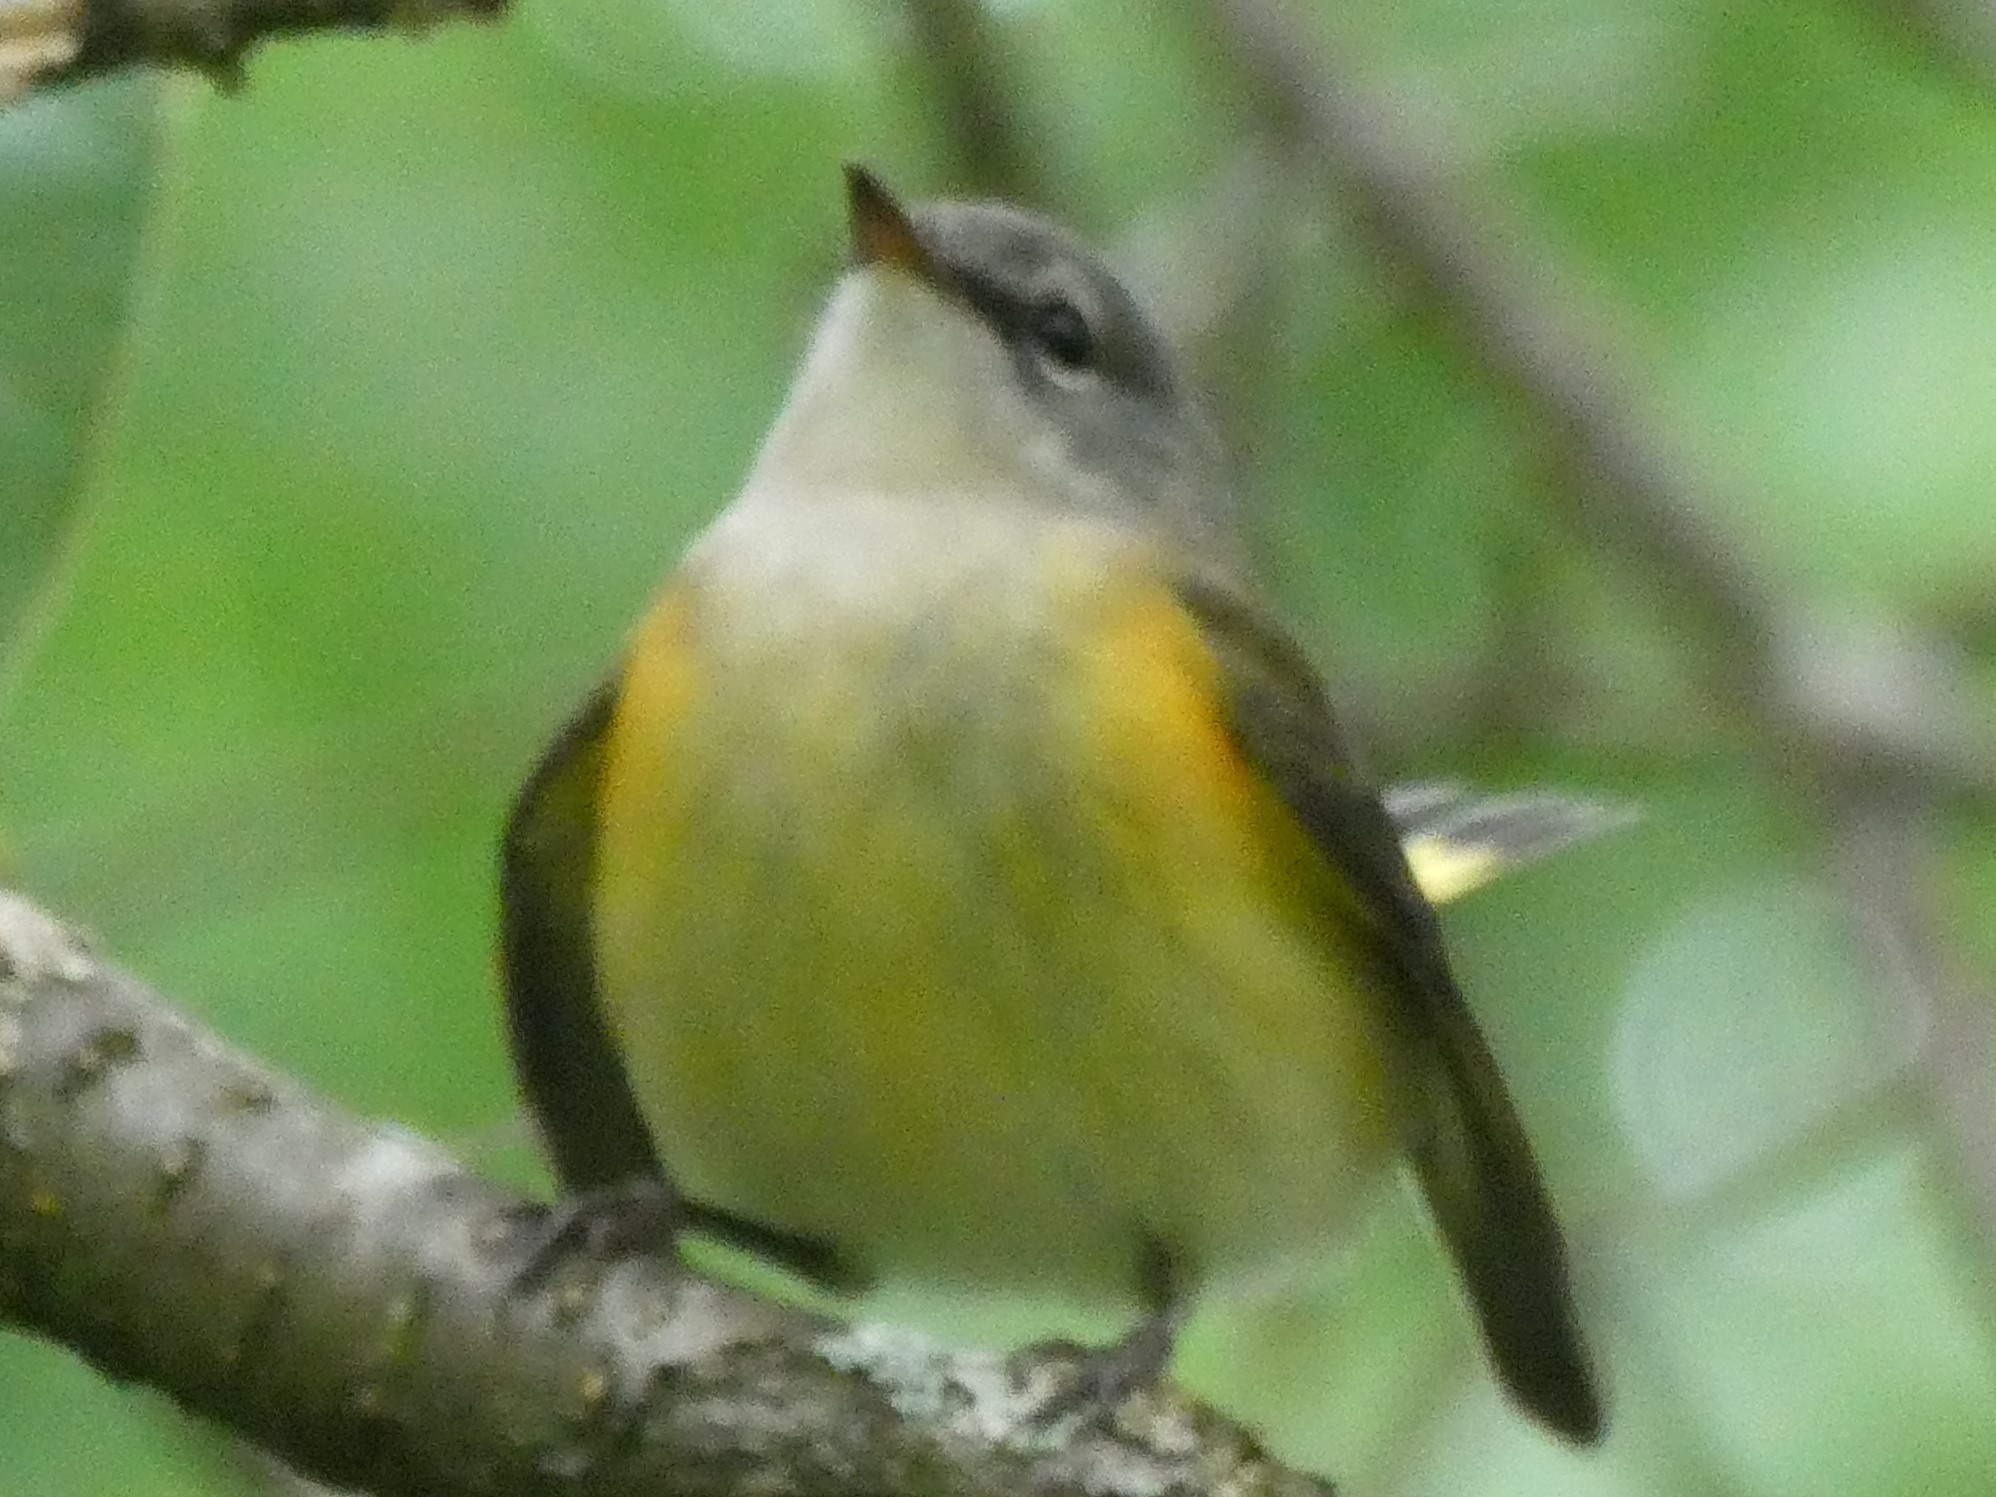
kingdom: Animalia
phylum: Chordata
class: Aves
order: Passeriformes
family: Parulidae
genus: Setophaga
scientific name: Setophaga ruticilla
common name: American redstart
